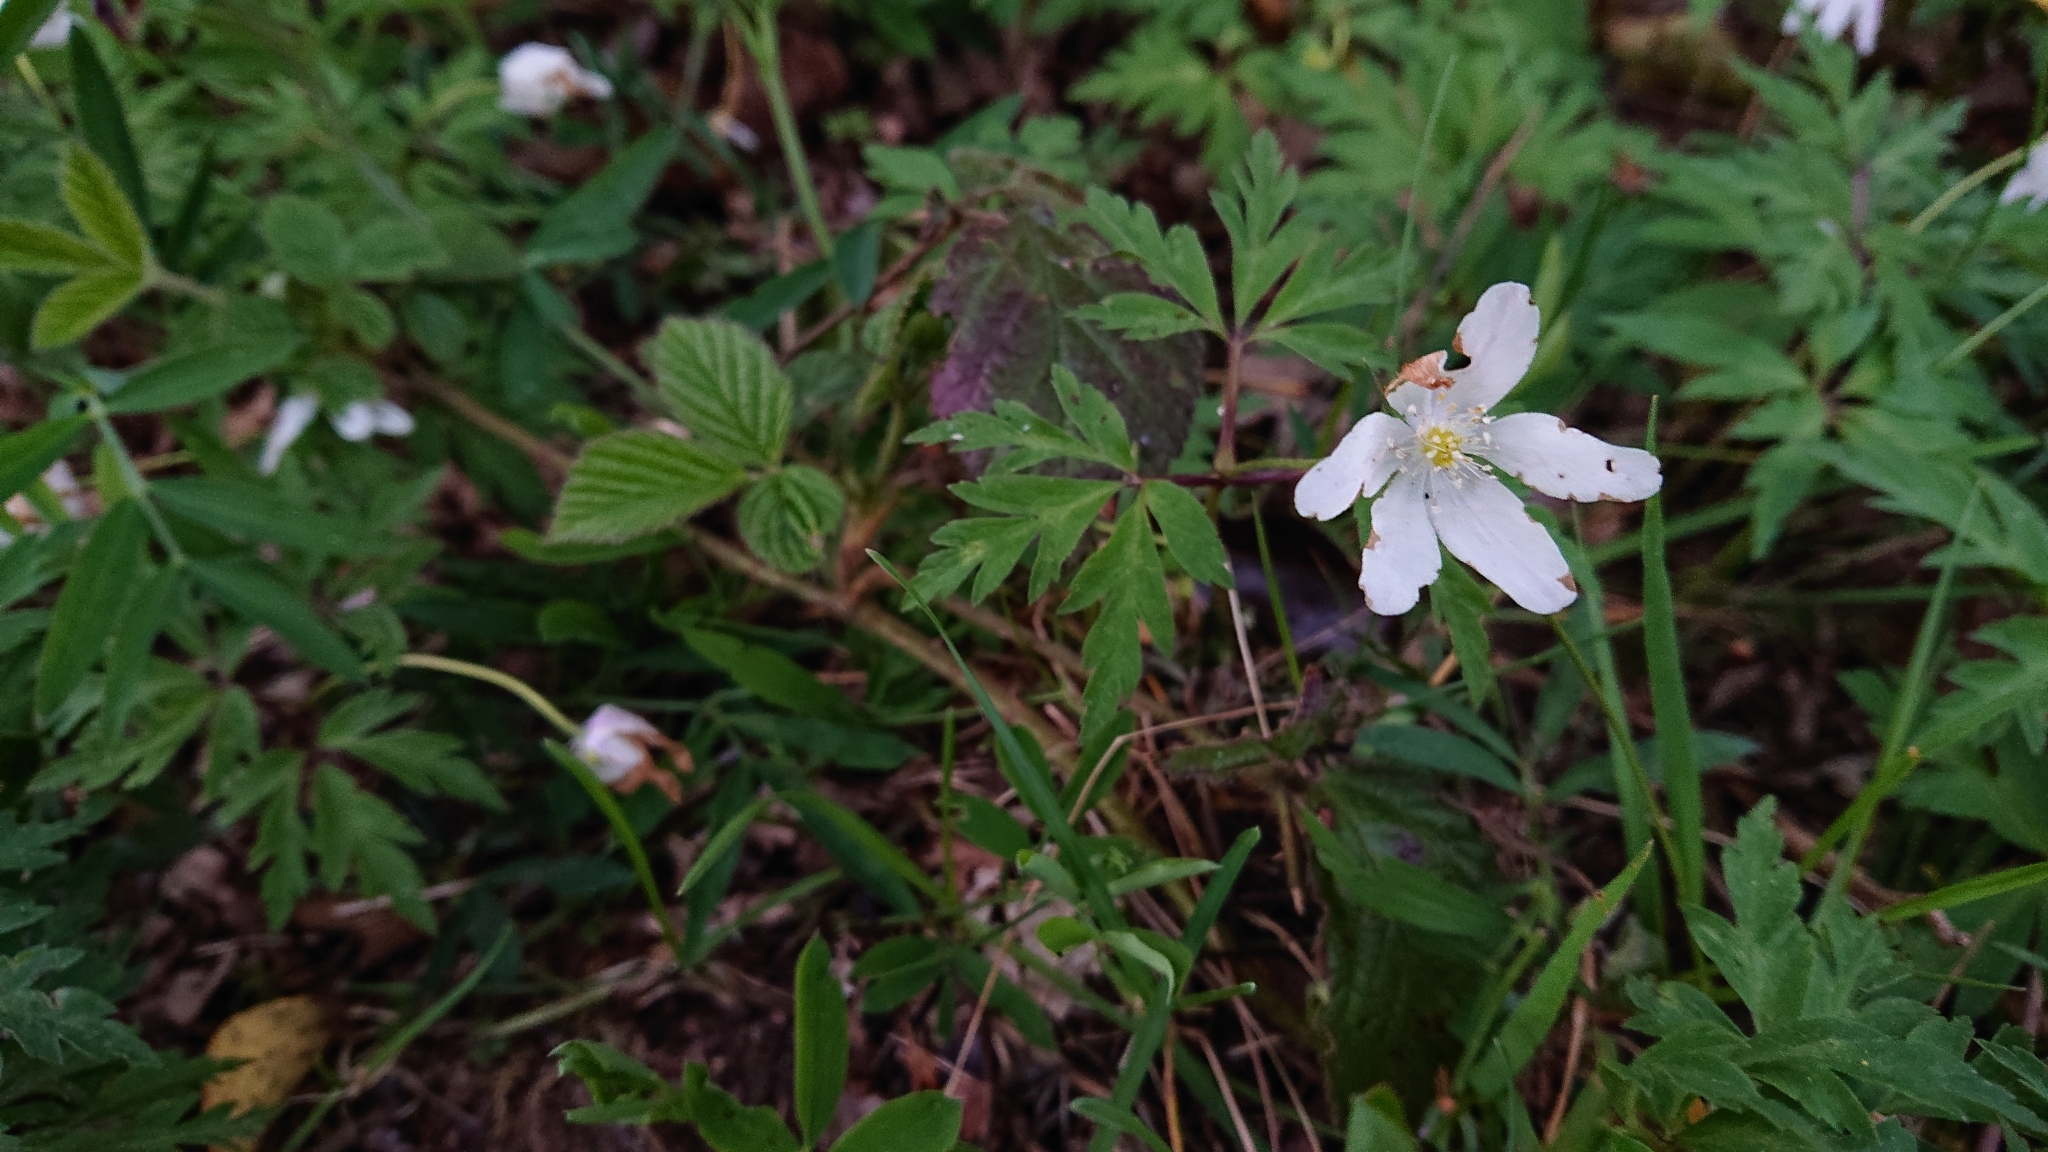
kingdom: Plantae
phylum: Tracheophyta
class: Magnoliopsida
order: Ranunculales
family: Ranunculaceae
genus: Anemone
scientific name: Anemone nemorosa
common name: Wood anemone
